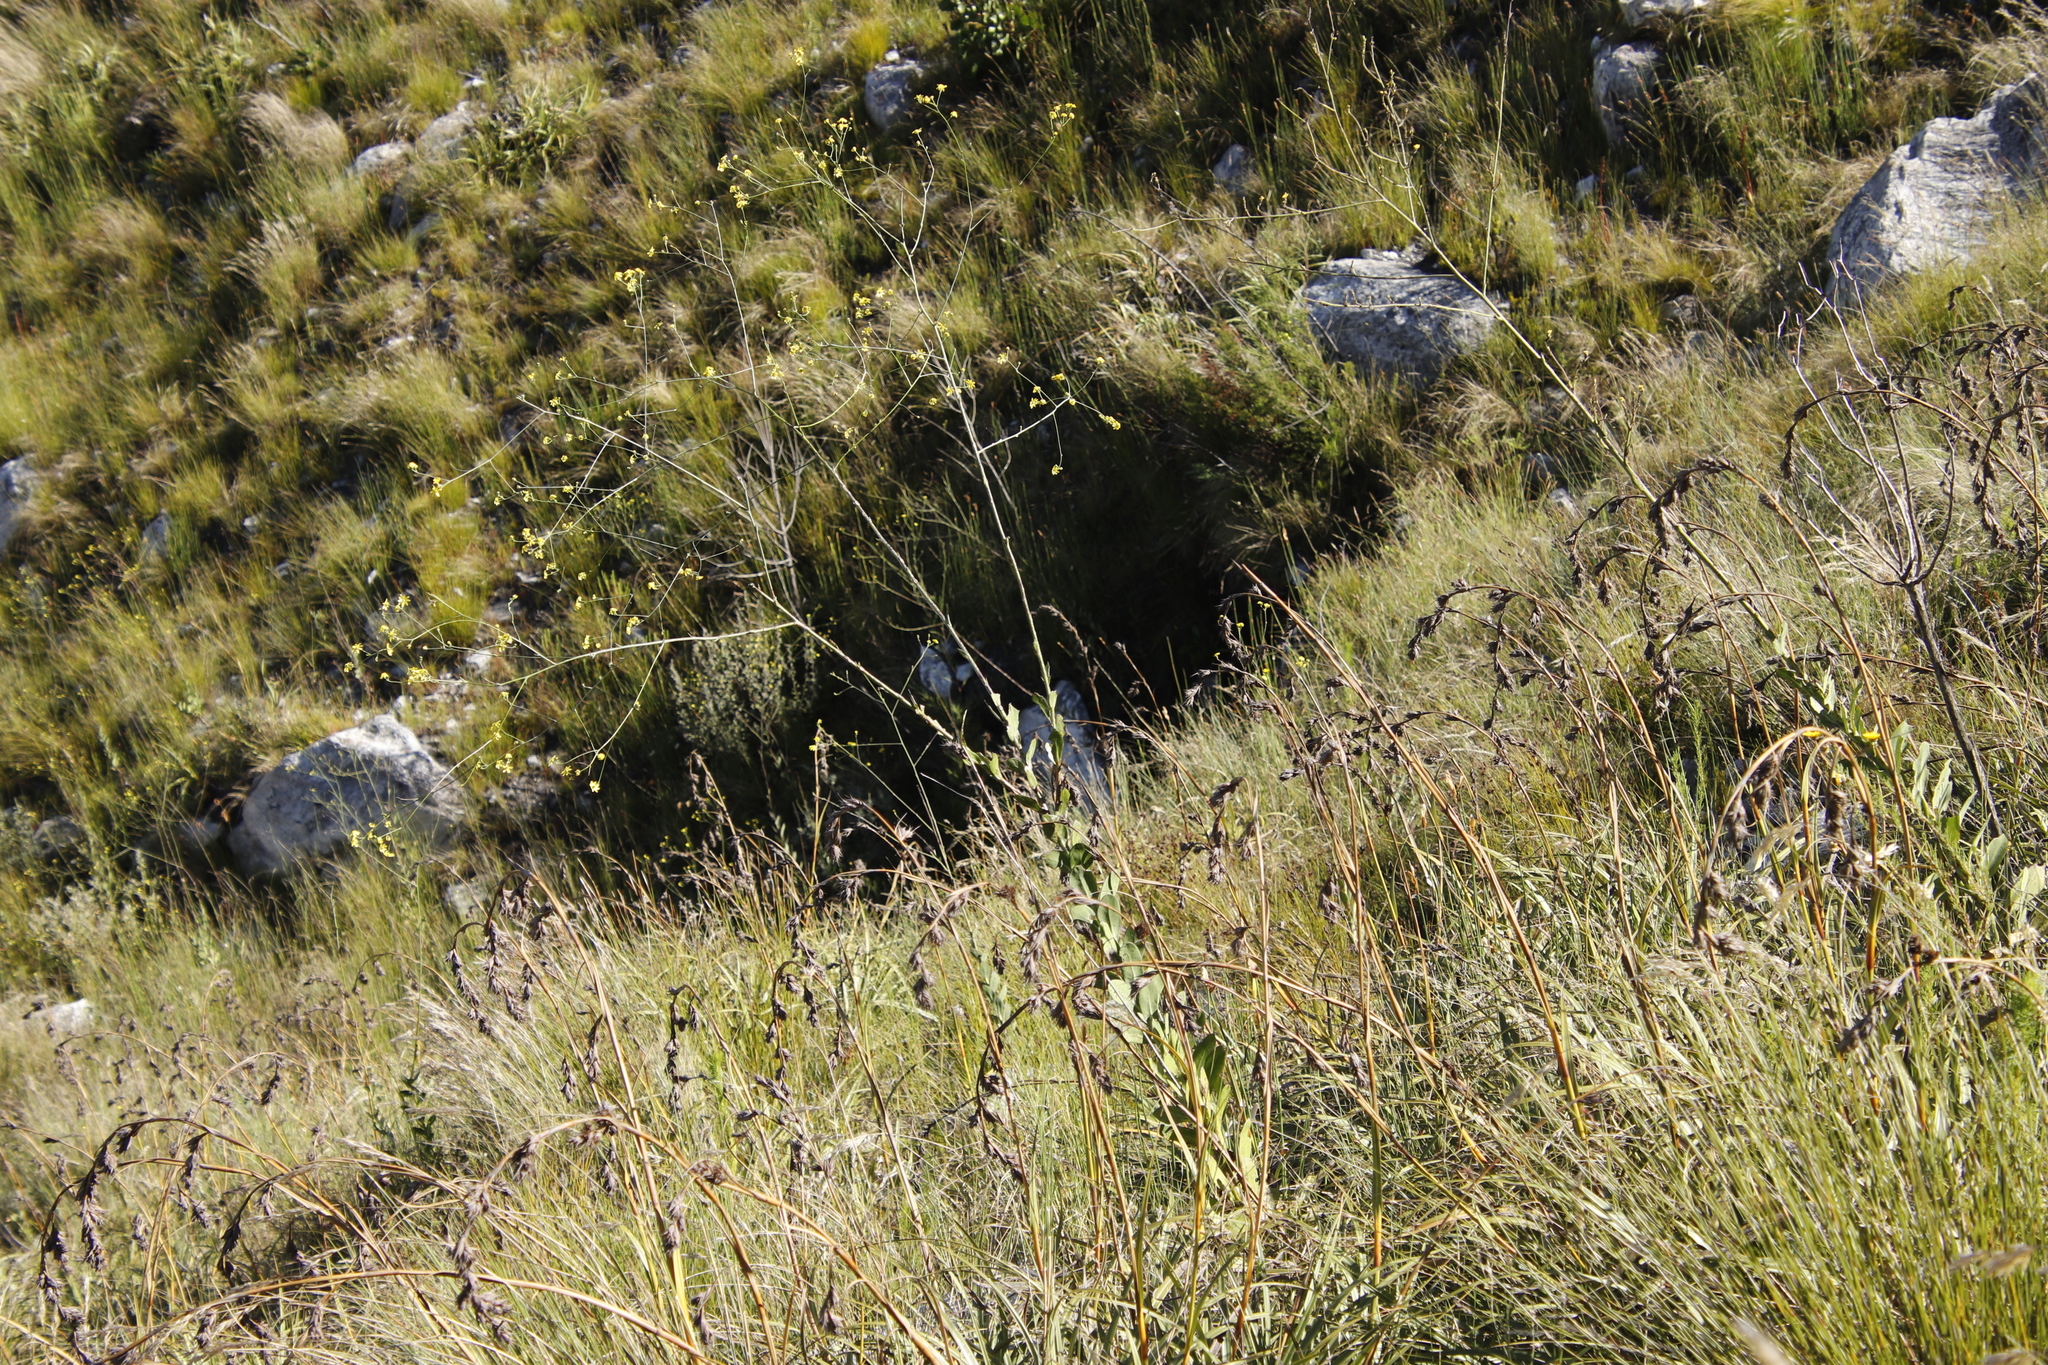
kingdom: Plantae
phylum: Tracheophyta
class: Magnoliopsida
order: Asterales
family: Asteraceae
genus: Othonna
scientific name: Othonna quinquedentata
